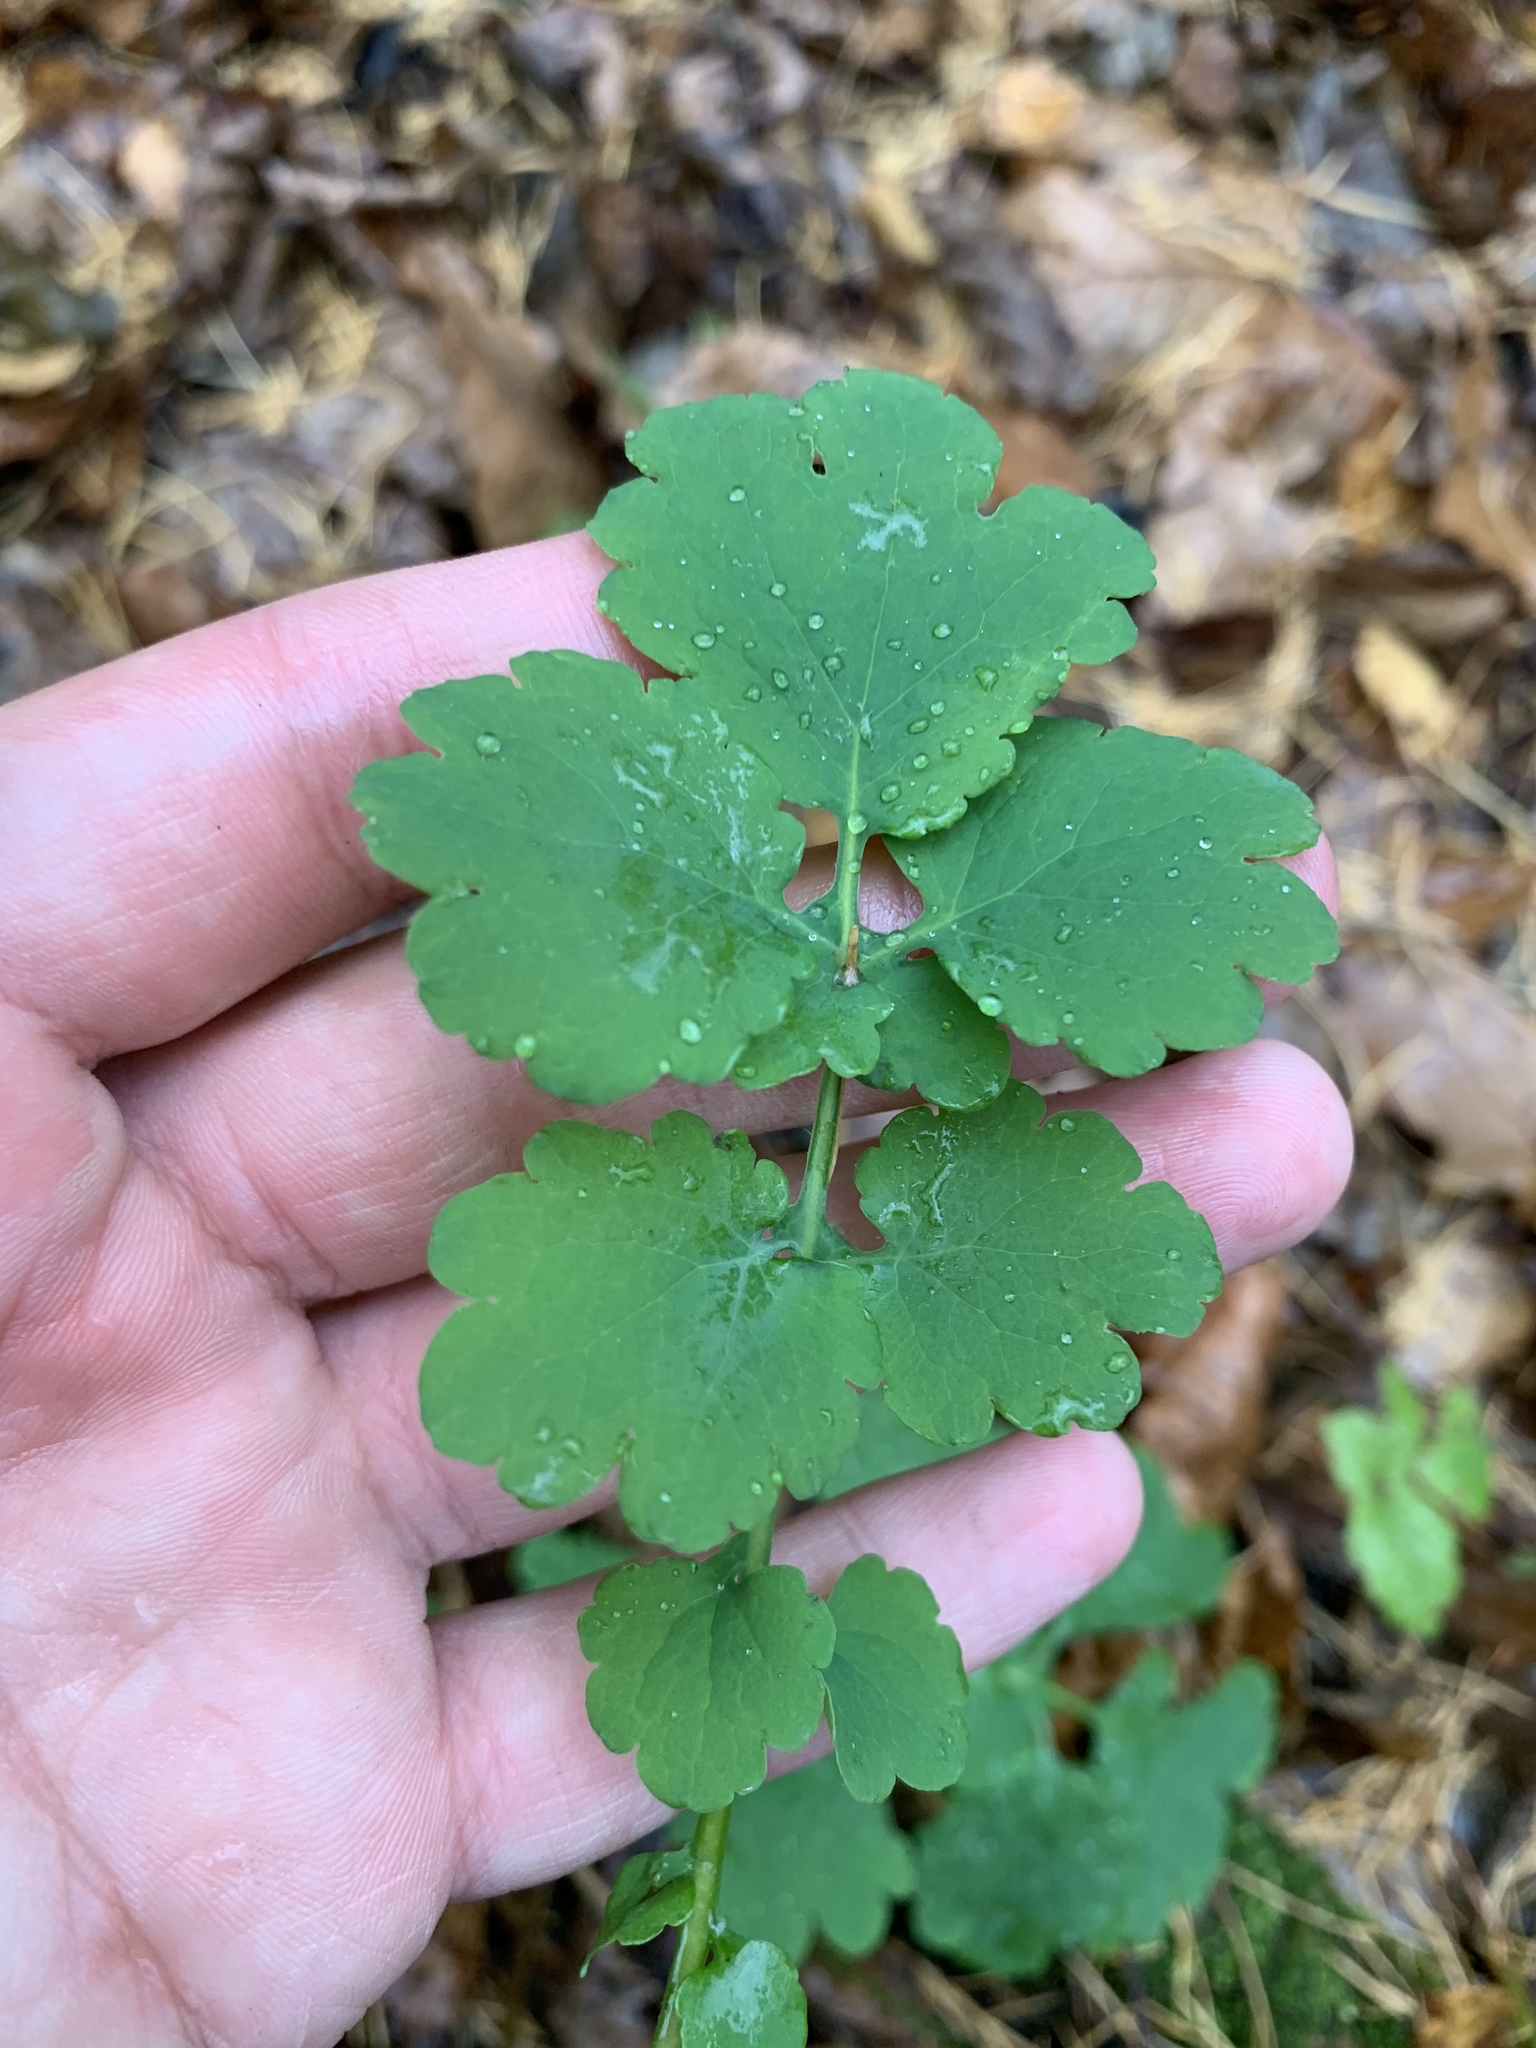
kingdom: Plantae
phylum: Tracheophyta
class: Magnoliopsida
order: Ranunculales
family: Papaveraceae
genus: Chelidonium
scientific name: Chelidonium majus
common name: Greater celandine
